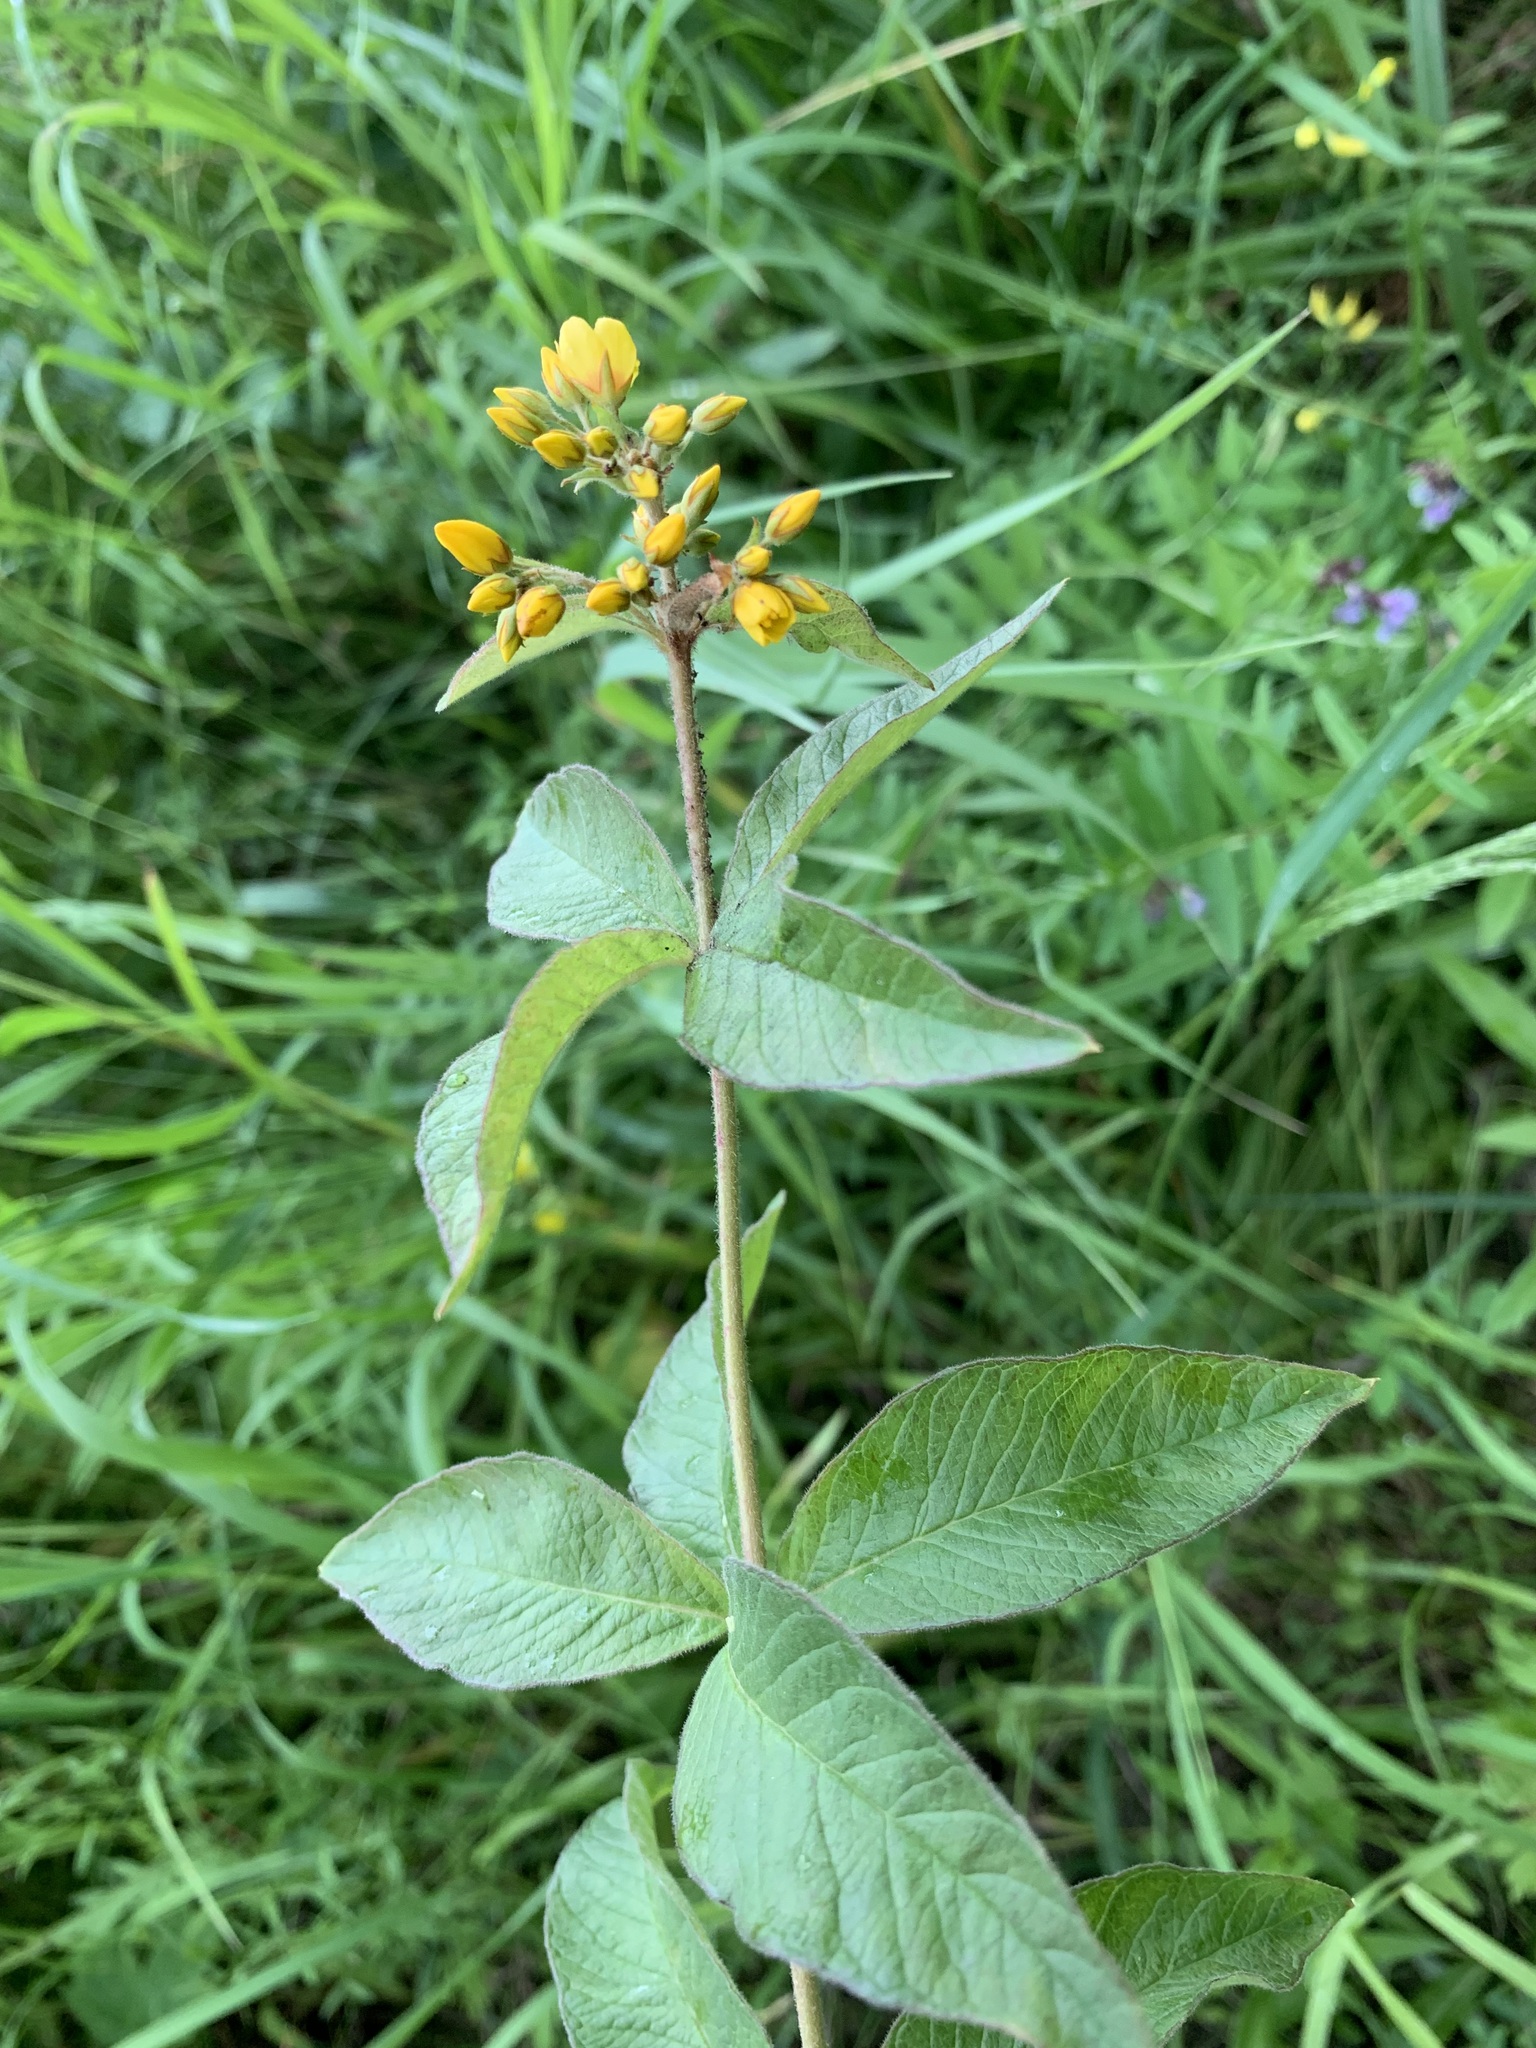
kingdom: Plantae
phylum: Tracheophyta
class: Magnoliopsida
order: Ericales
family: Primulaceae
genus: Lysimachia
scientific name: Lysimachia vulgaris
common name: Yellow loosestrife
